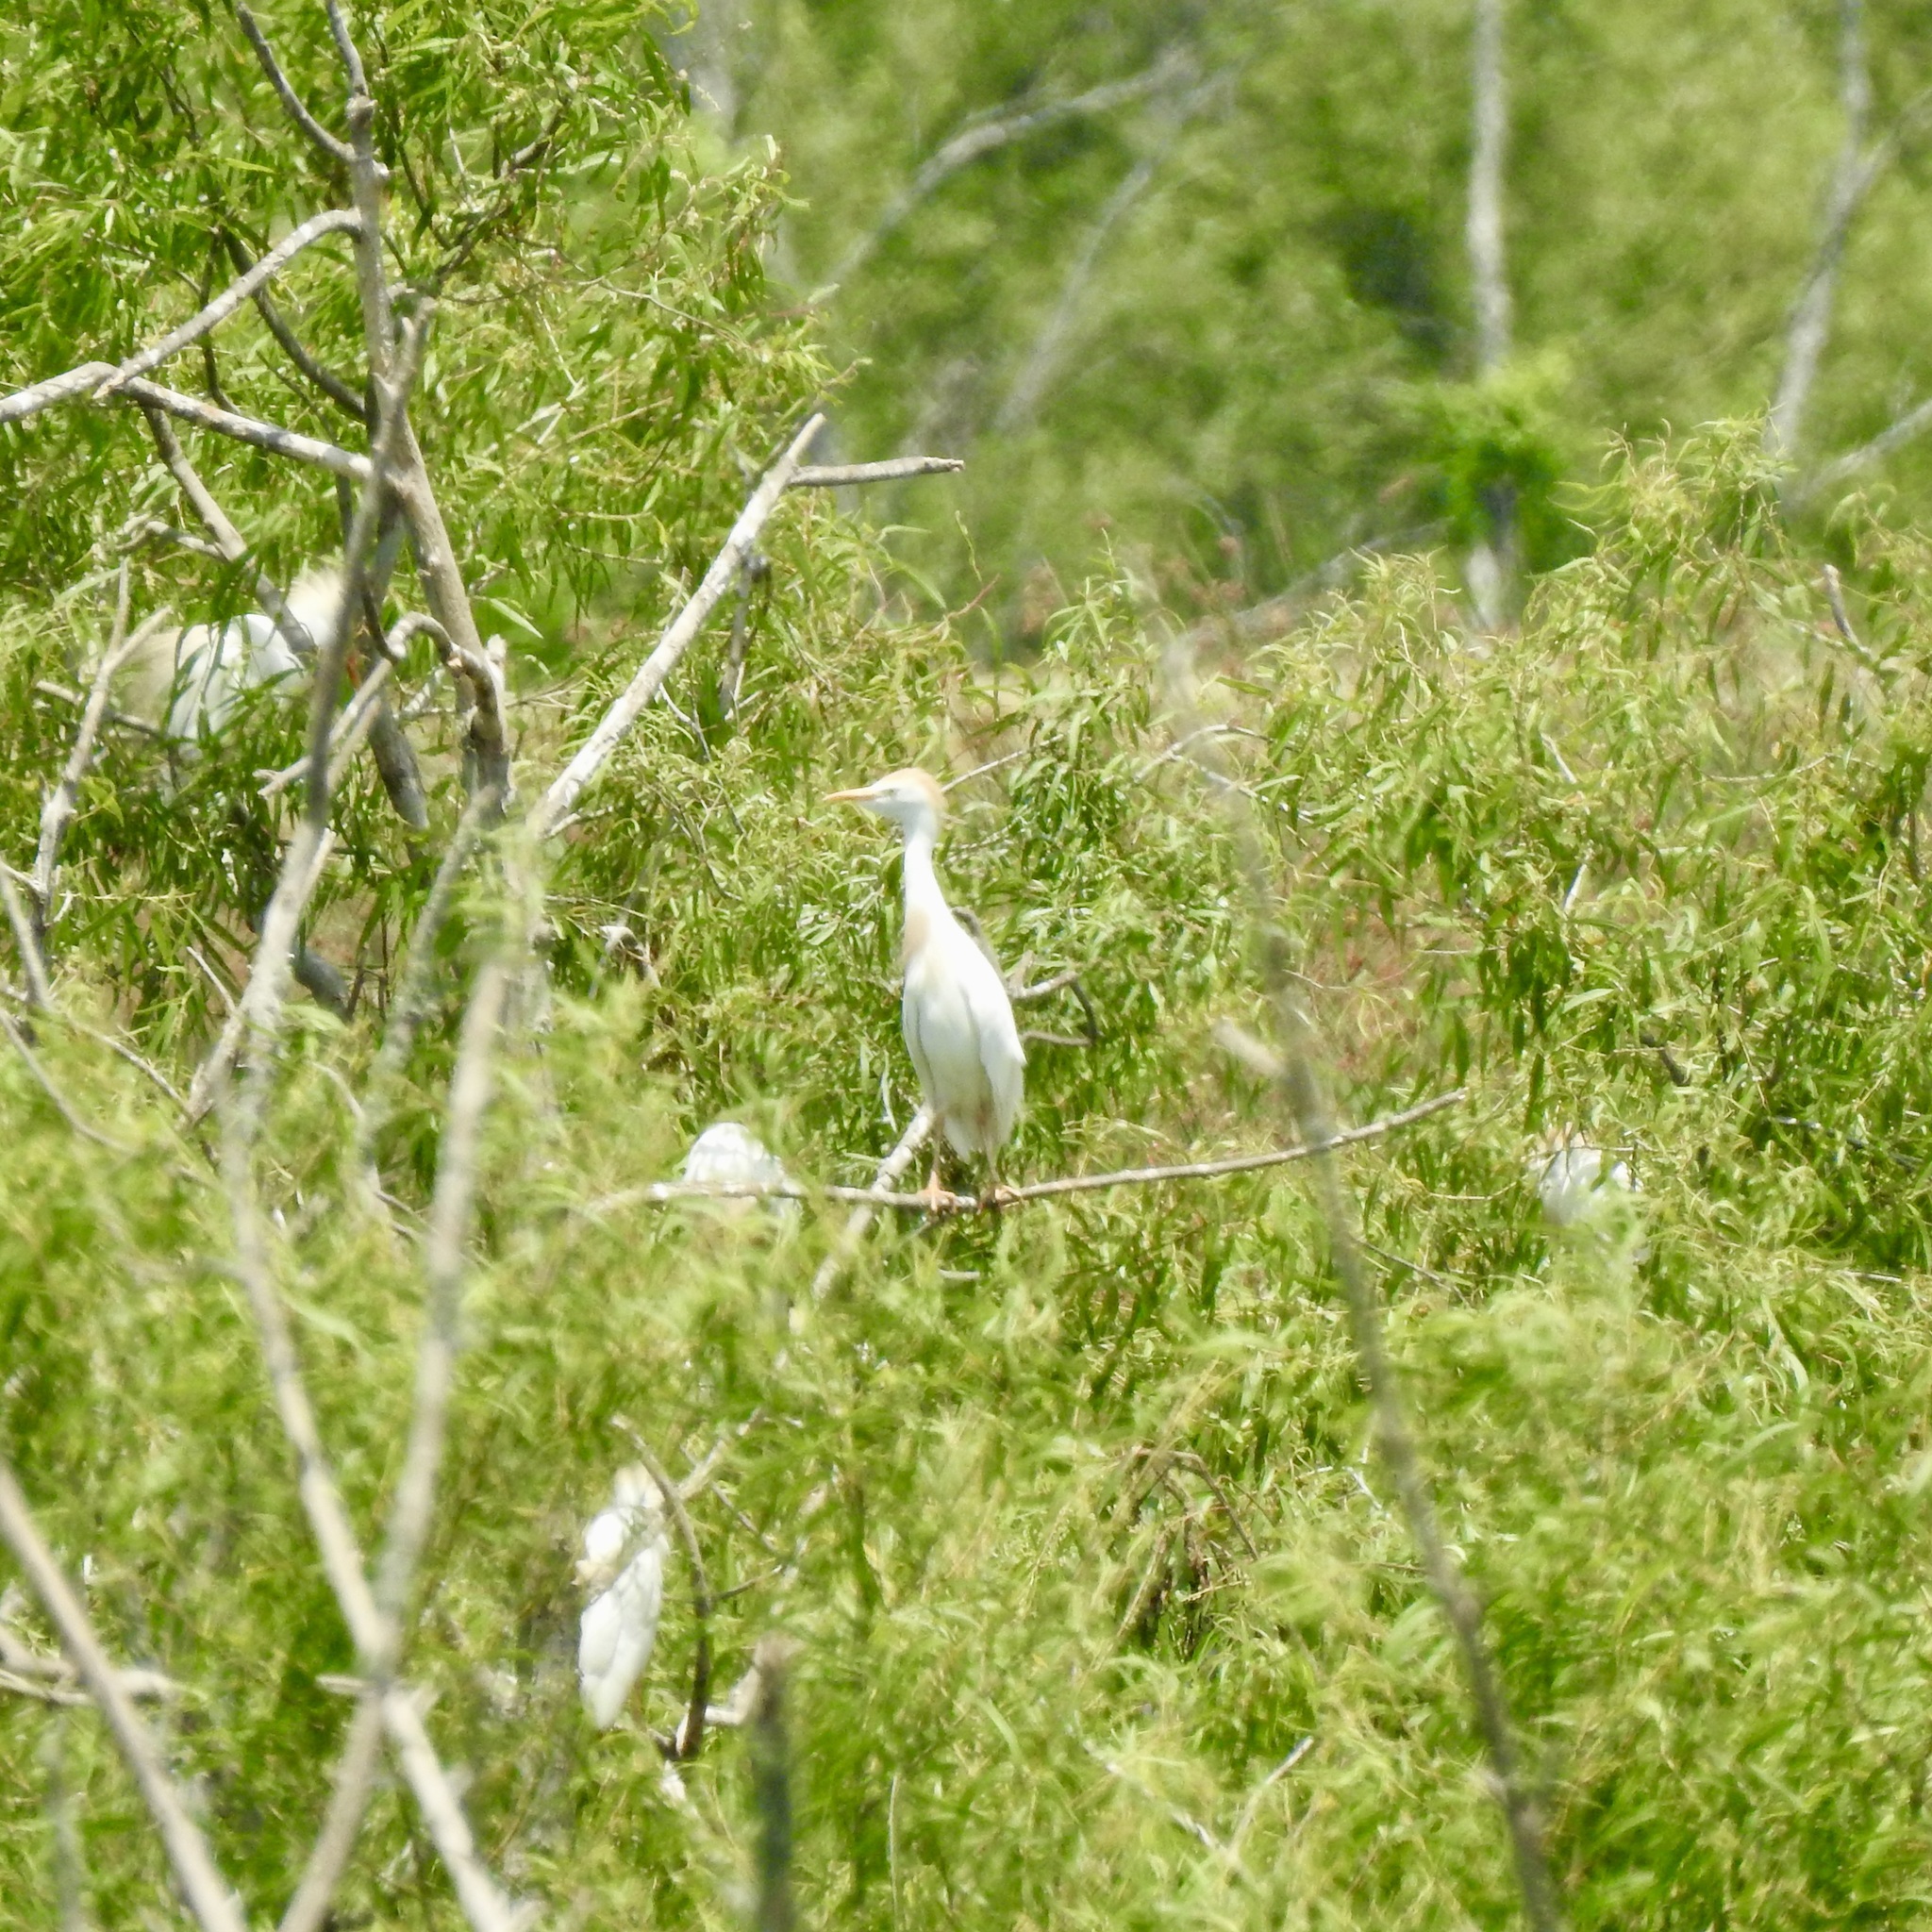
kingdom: Animalia
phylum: Chordata
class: Aves
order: Pelecaniformes
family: Ardeidae
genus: Bubulcus
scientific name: Bubulcus ibis
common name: Cattle egret
